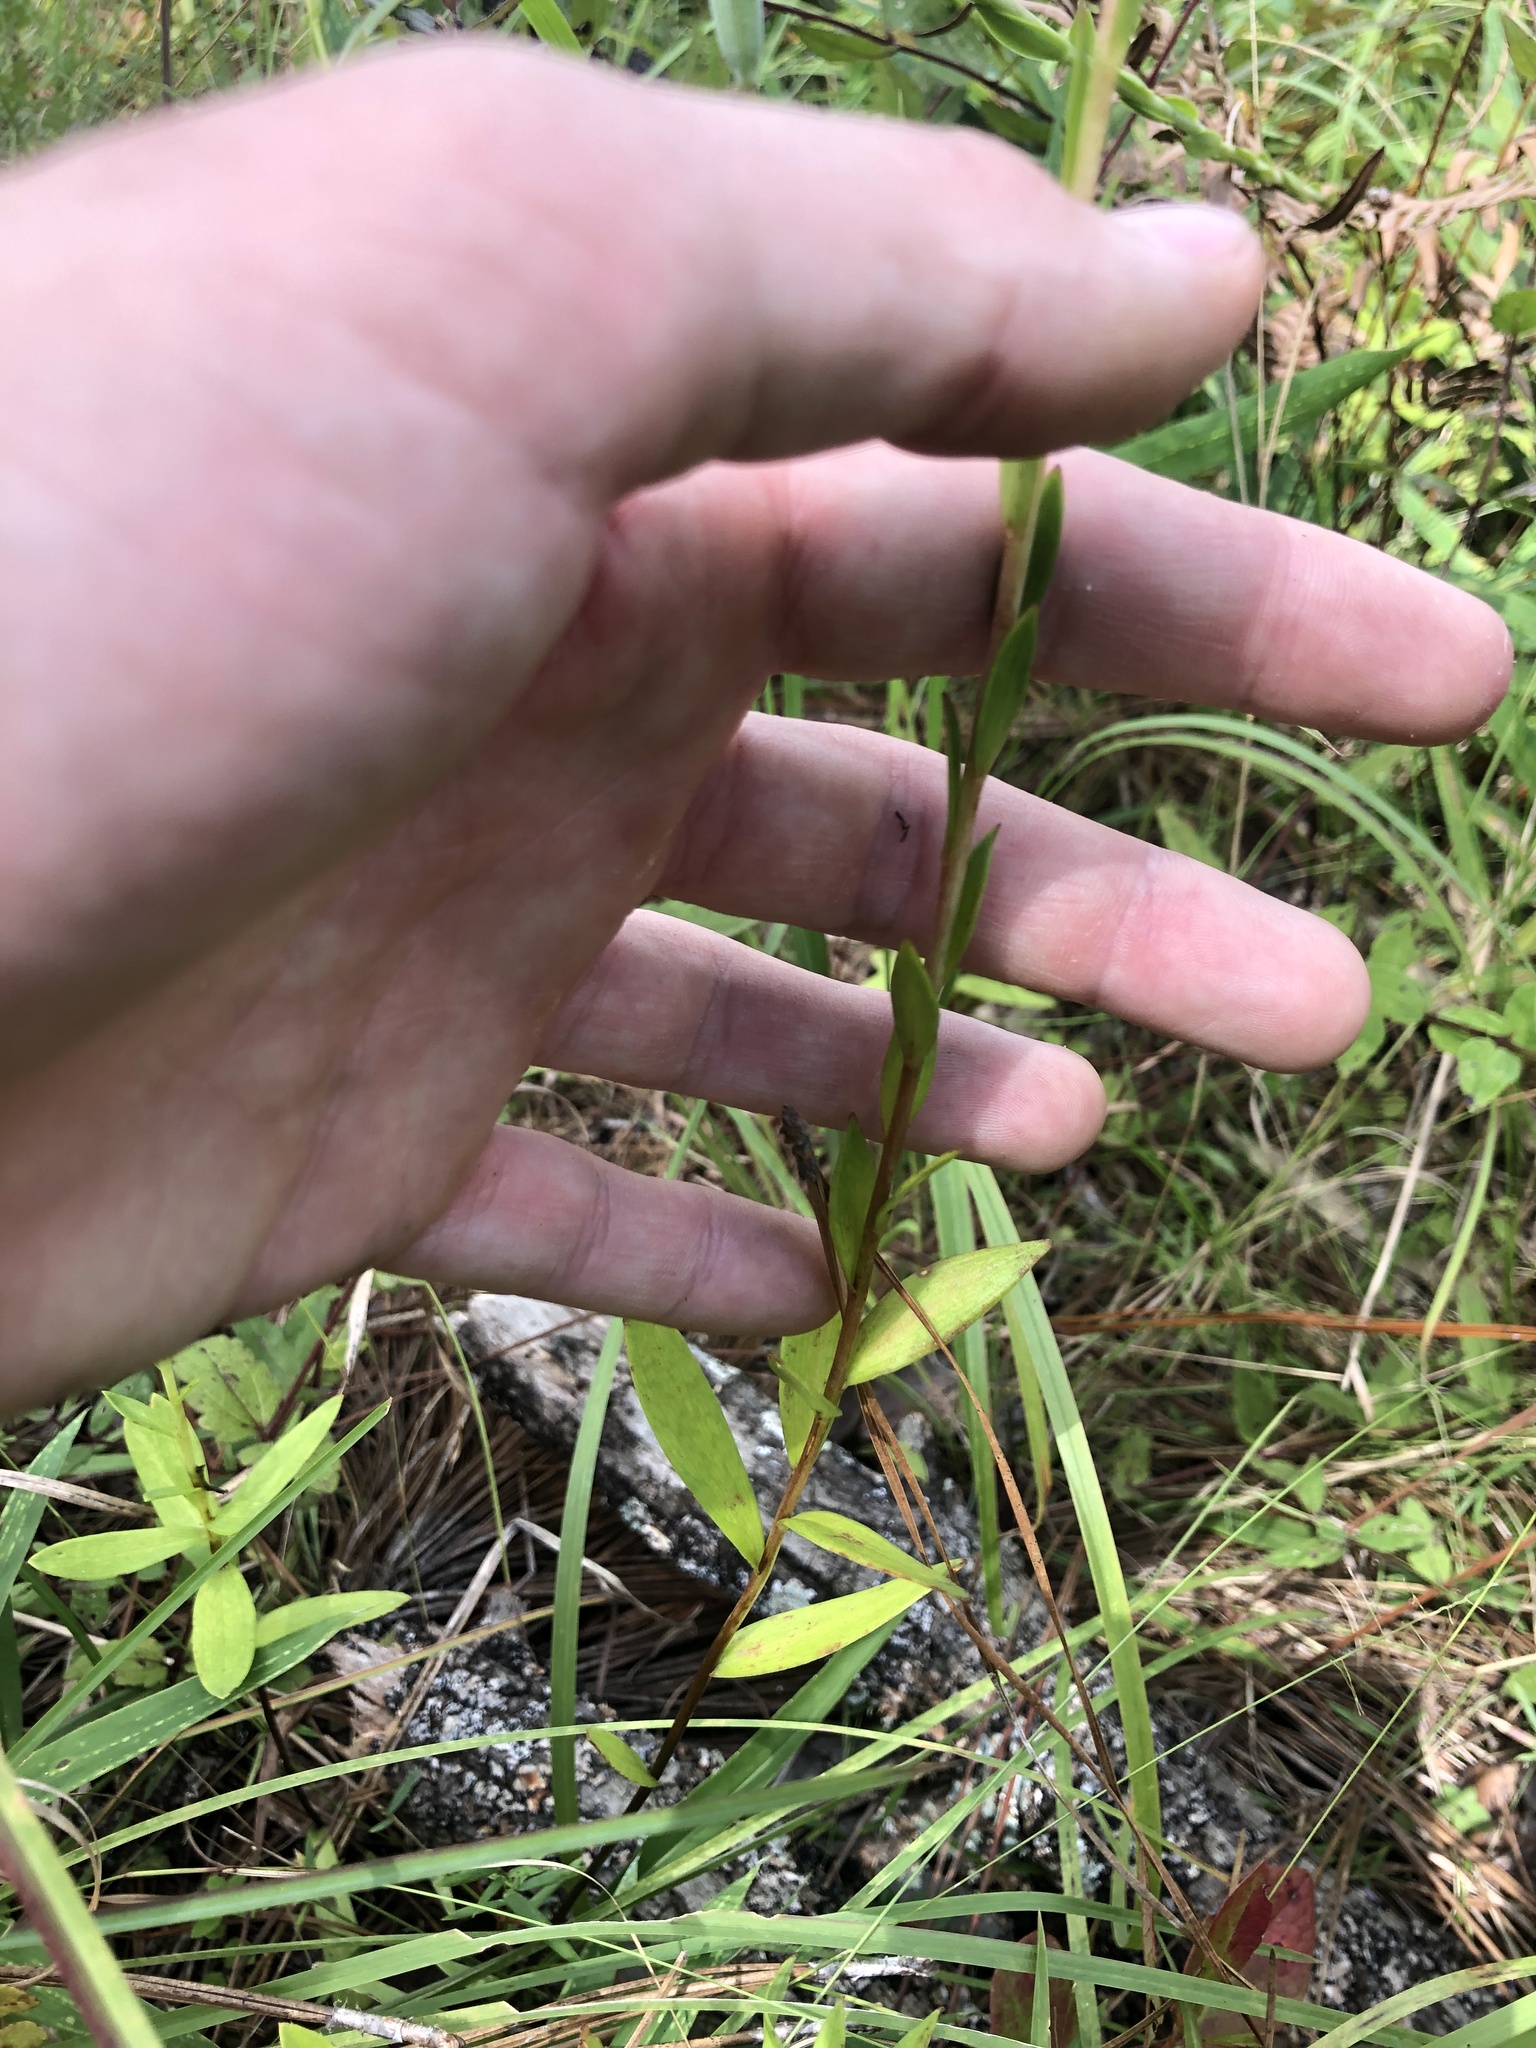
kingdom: Plantae
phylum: Tracheophyta
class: Liliopsida
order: Liliales
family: Liliaceae
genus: Lilium
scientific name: Lilium pyrophilum
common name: Sandhills lily
